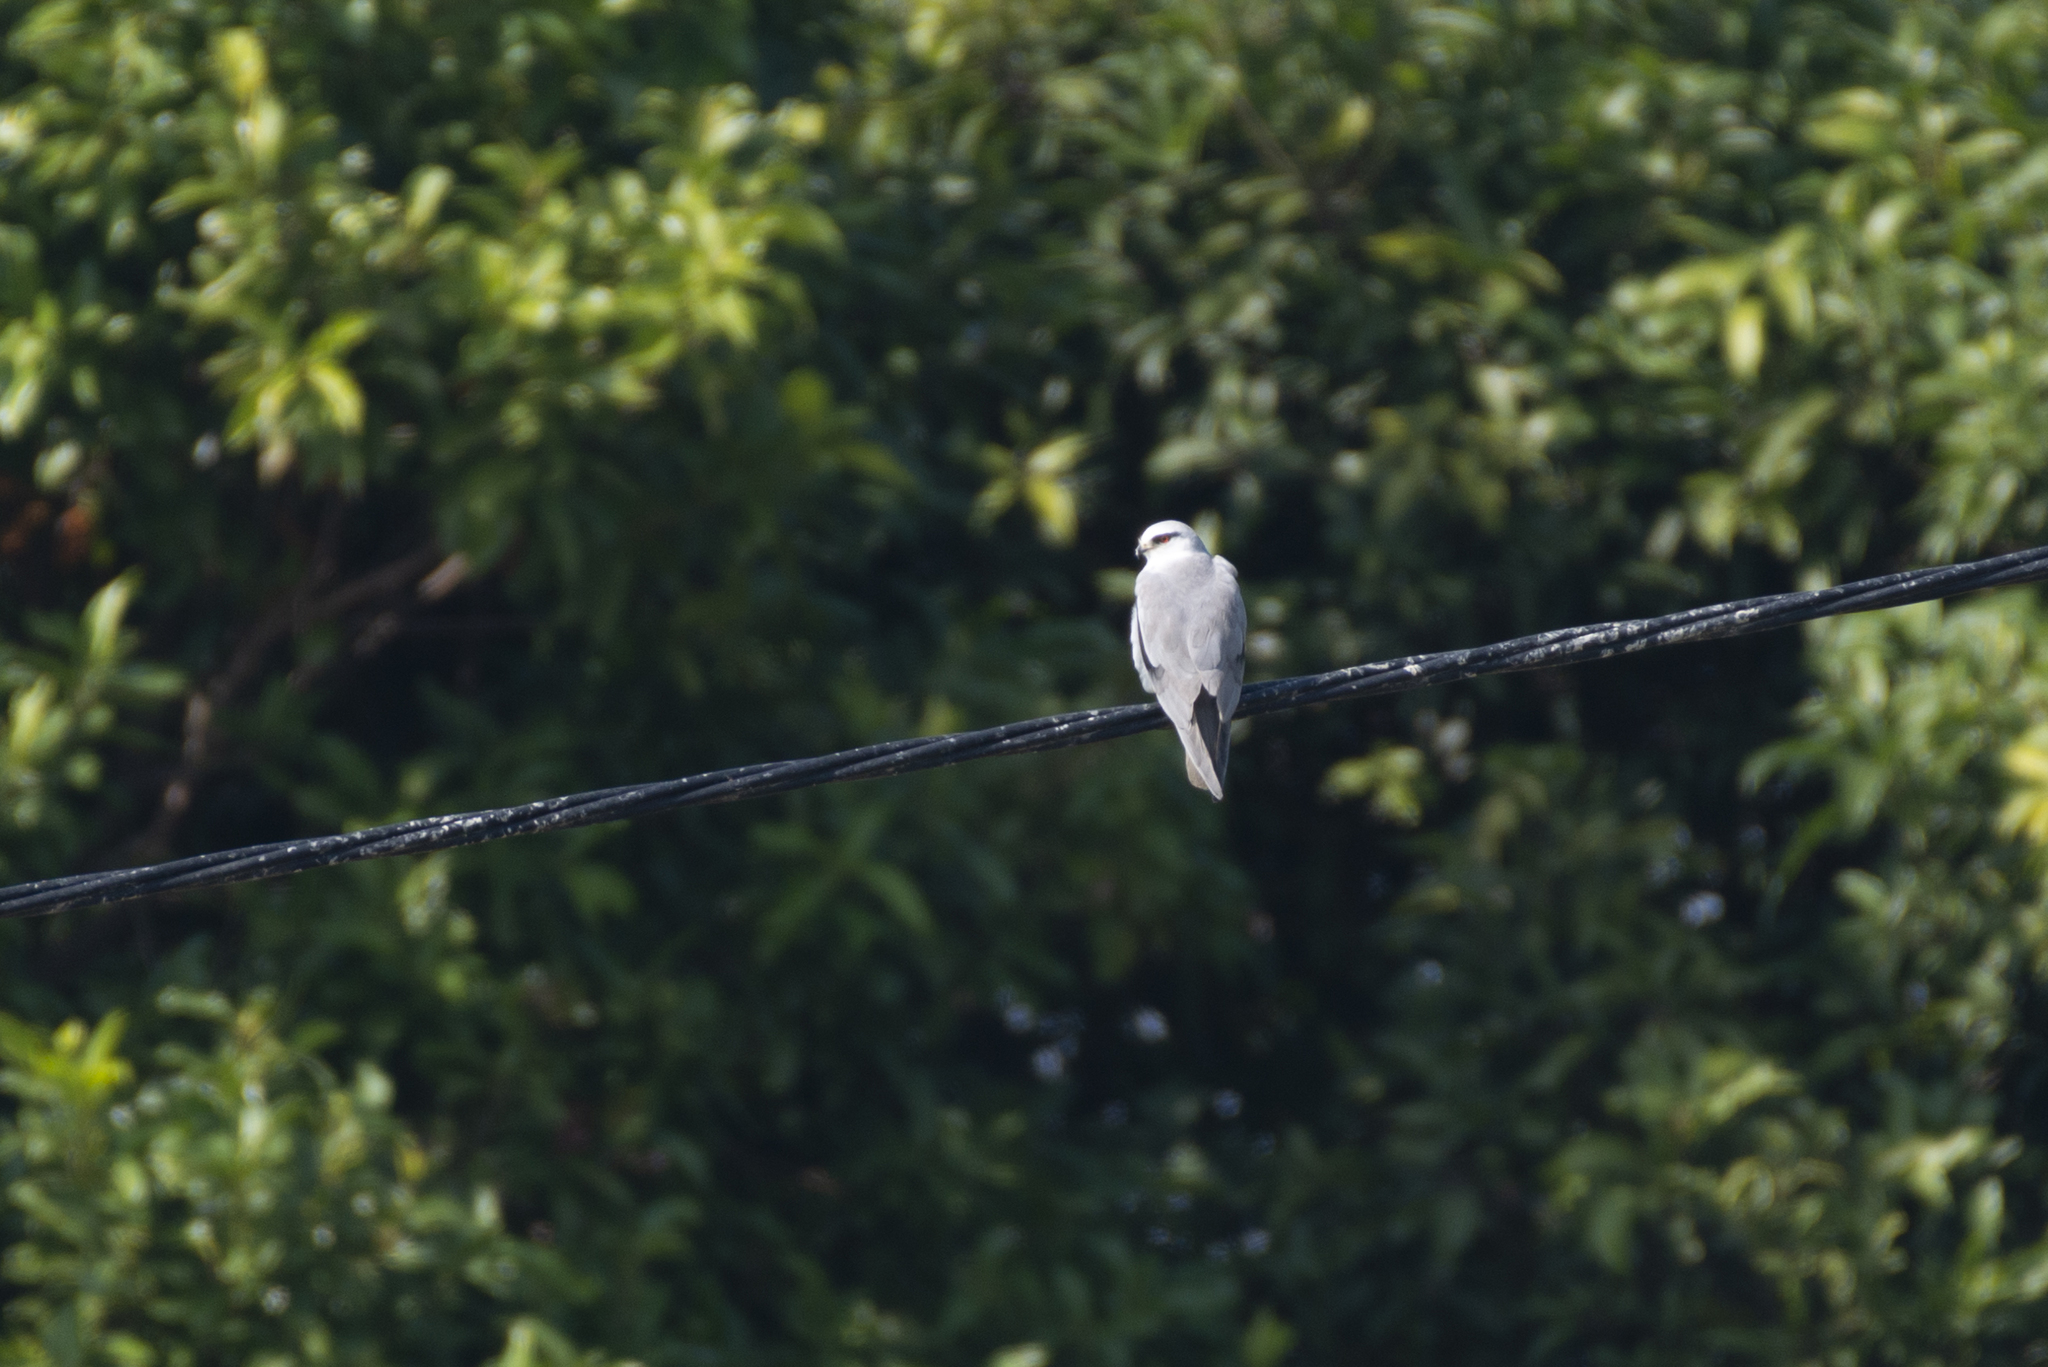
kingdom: Animalia
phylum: Chordata
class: Aves
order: Accipitriformes
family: Accipitridae
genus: Elanus
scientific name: Elanus caeruleus
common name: Black-winged kite
